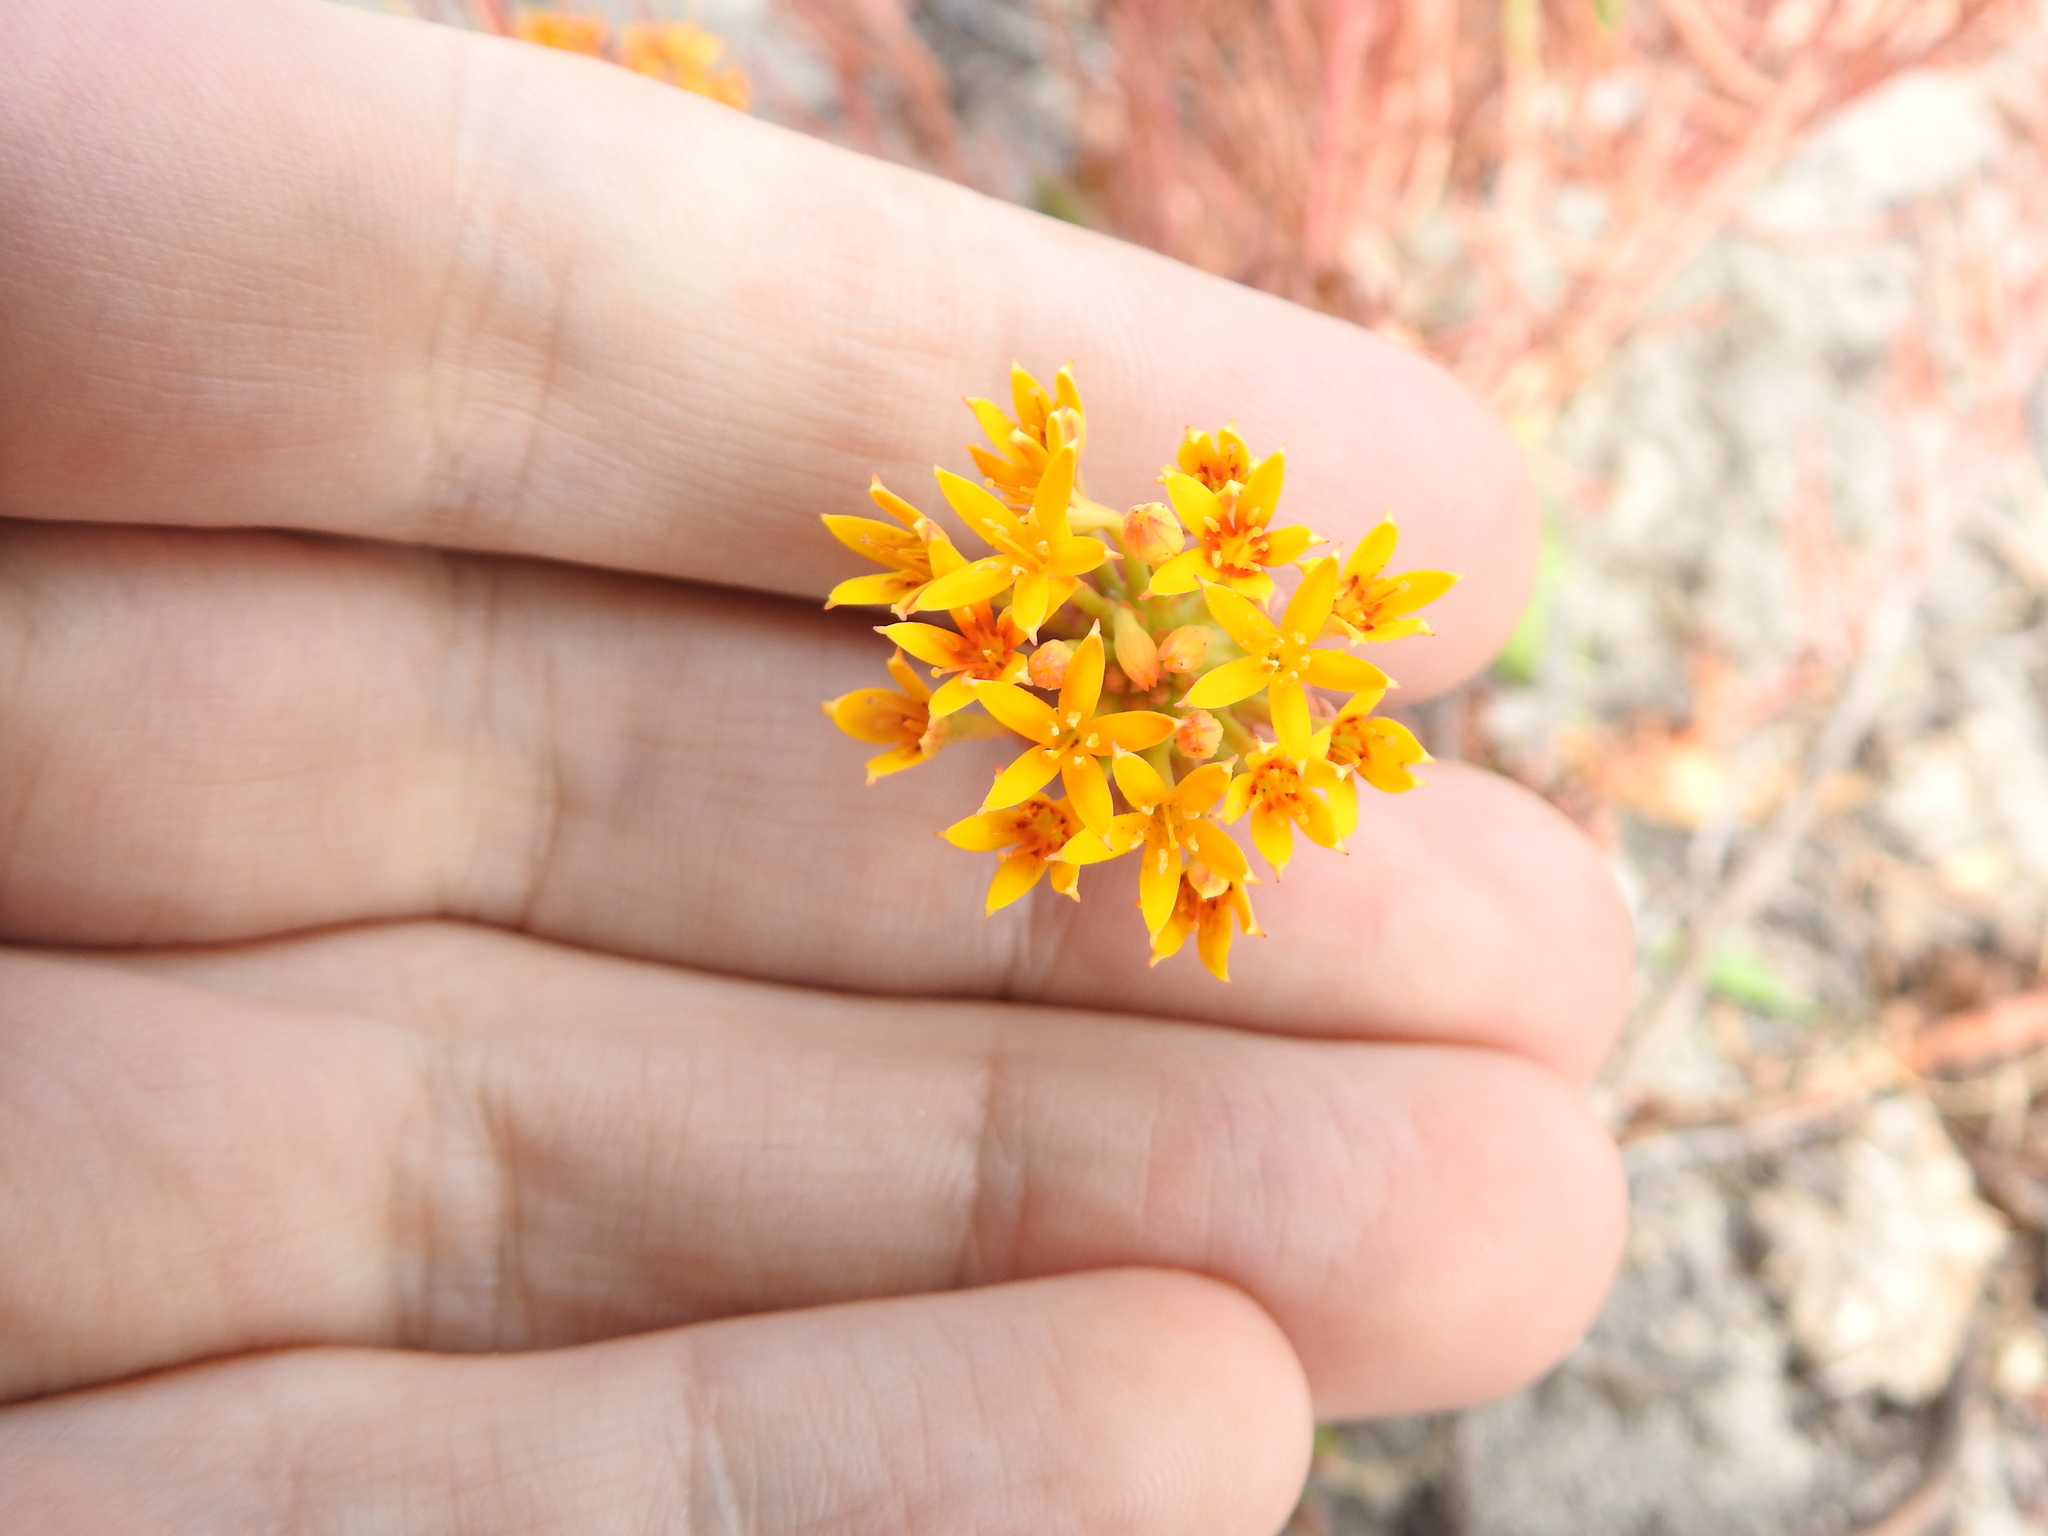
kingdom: Plantae
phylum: Tracheophyta
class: Magnoliopsida
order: Santalales
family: Schoepfiaceae
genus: Quinchamalium
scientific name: Quinchamalium chilense
